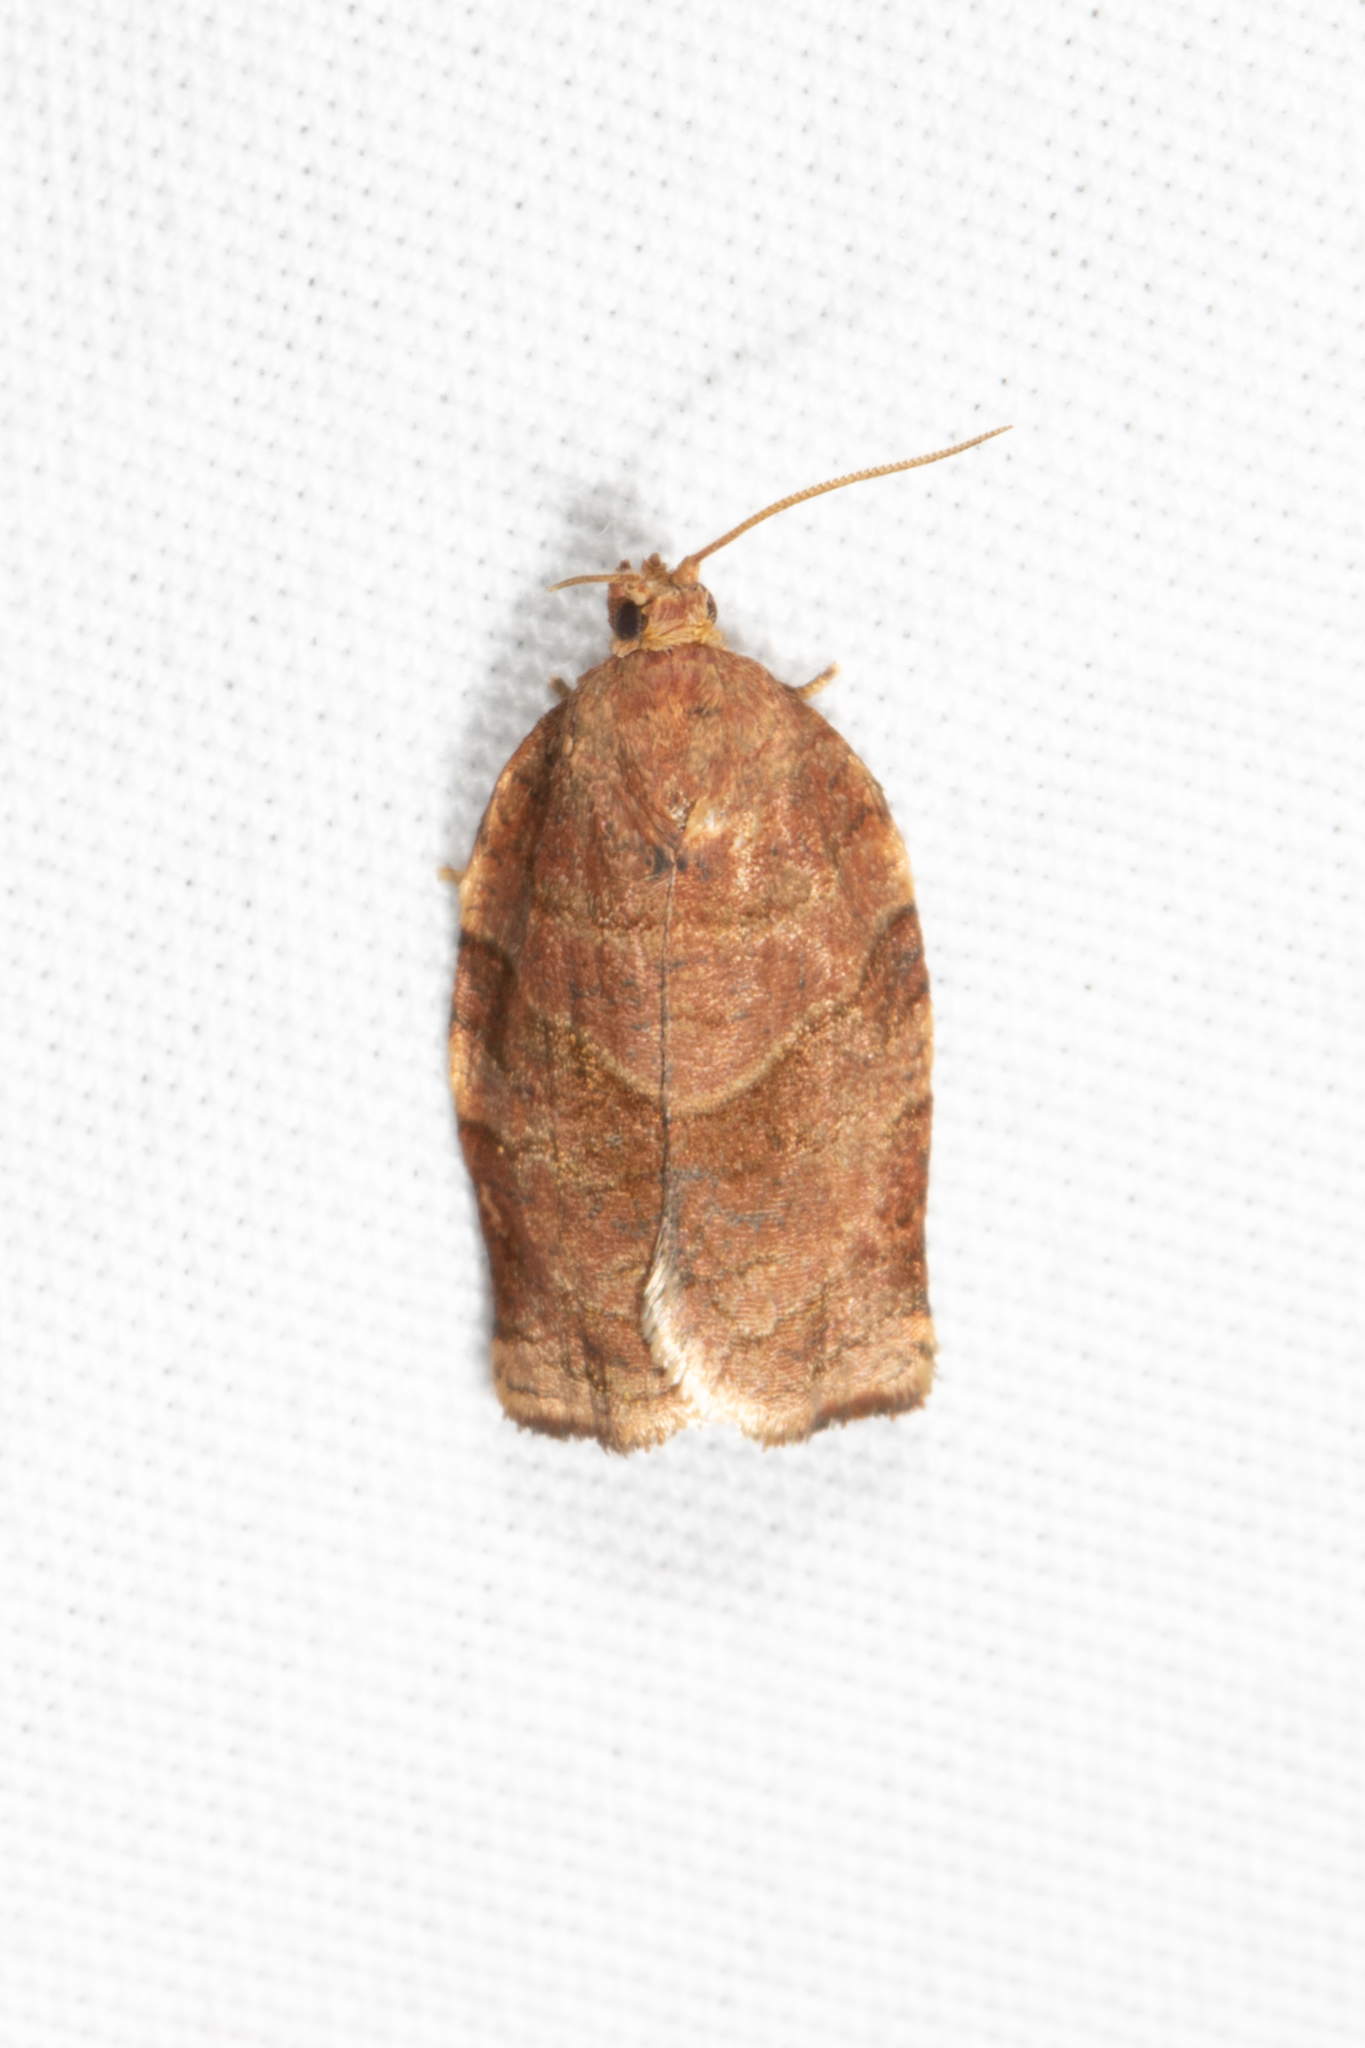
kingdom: Animalia
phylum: Arthropoda
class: Insecta
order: Lepidoptera
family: Tortricidae
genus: Choristoneura
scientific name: Choristoneura rosaceana
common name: Oblique-banded leafroller moth
